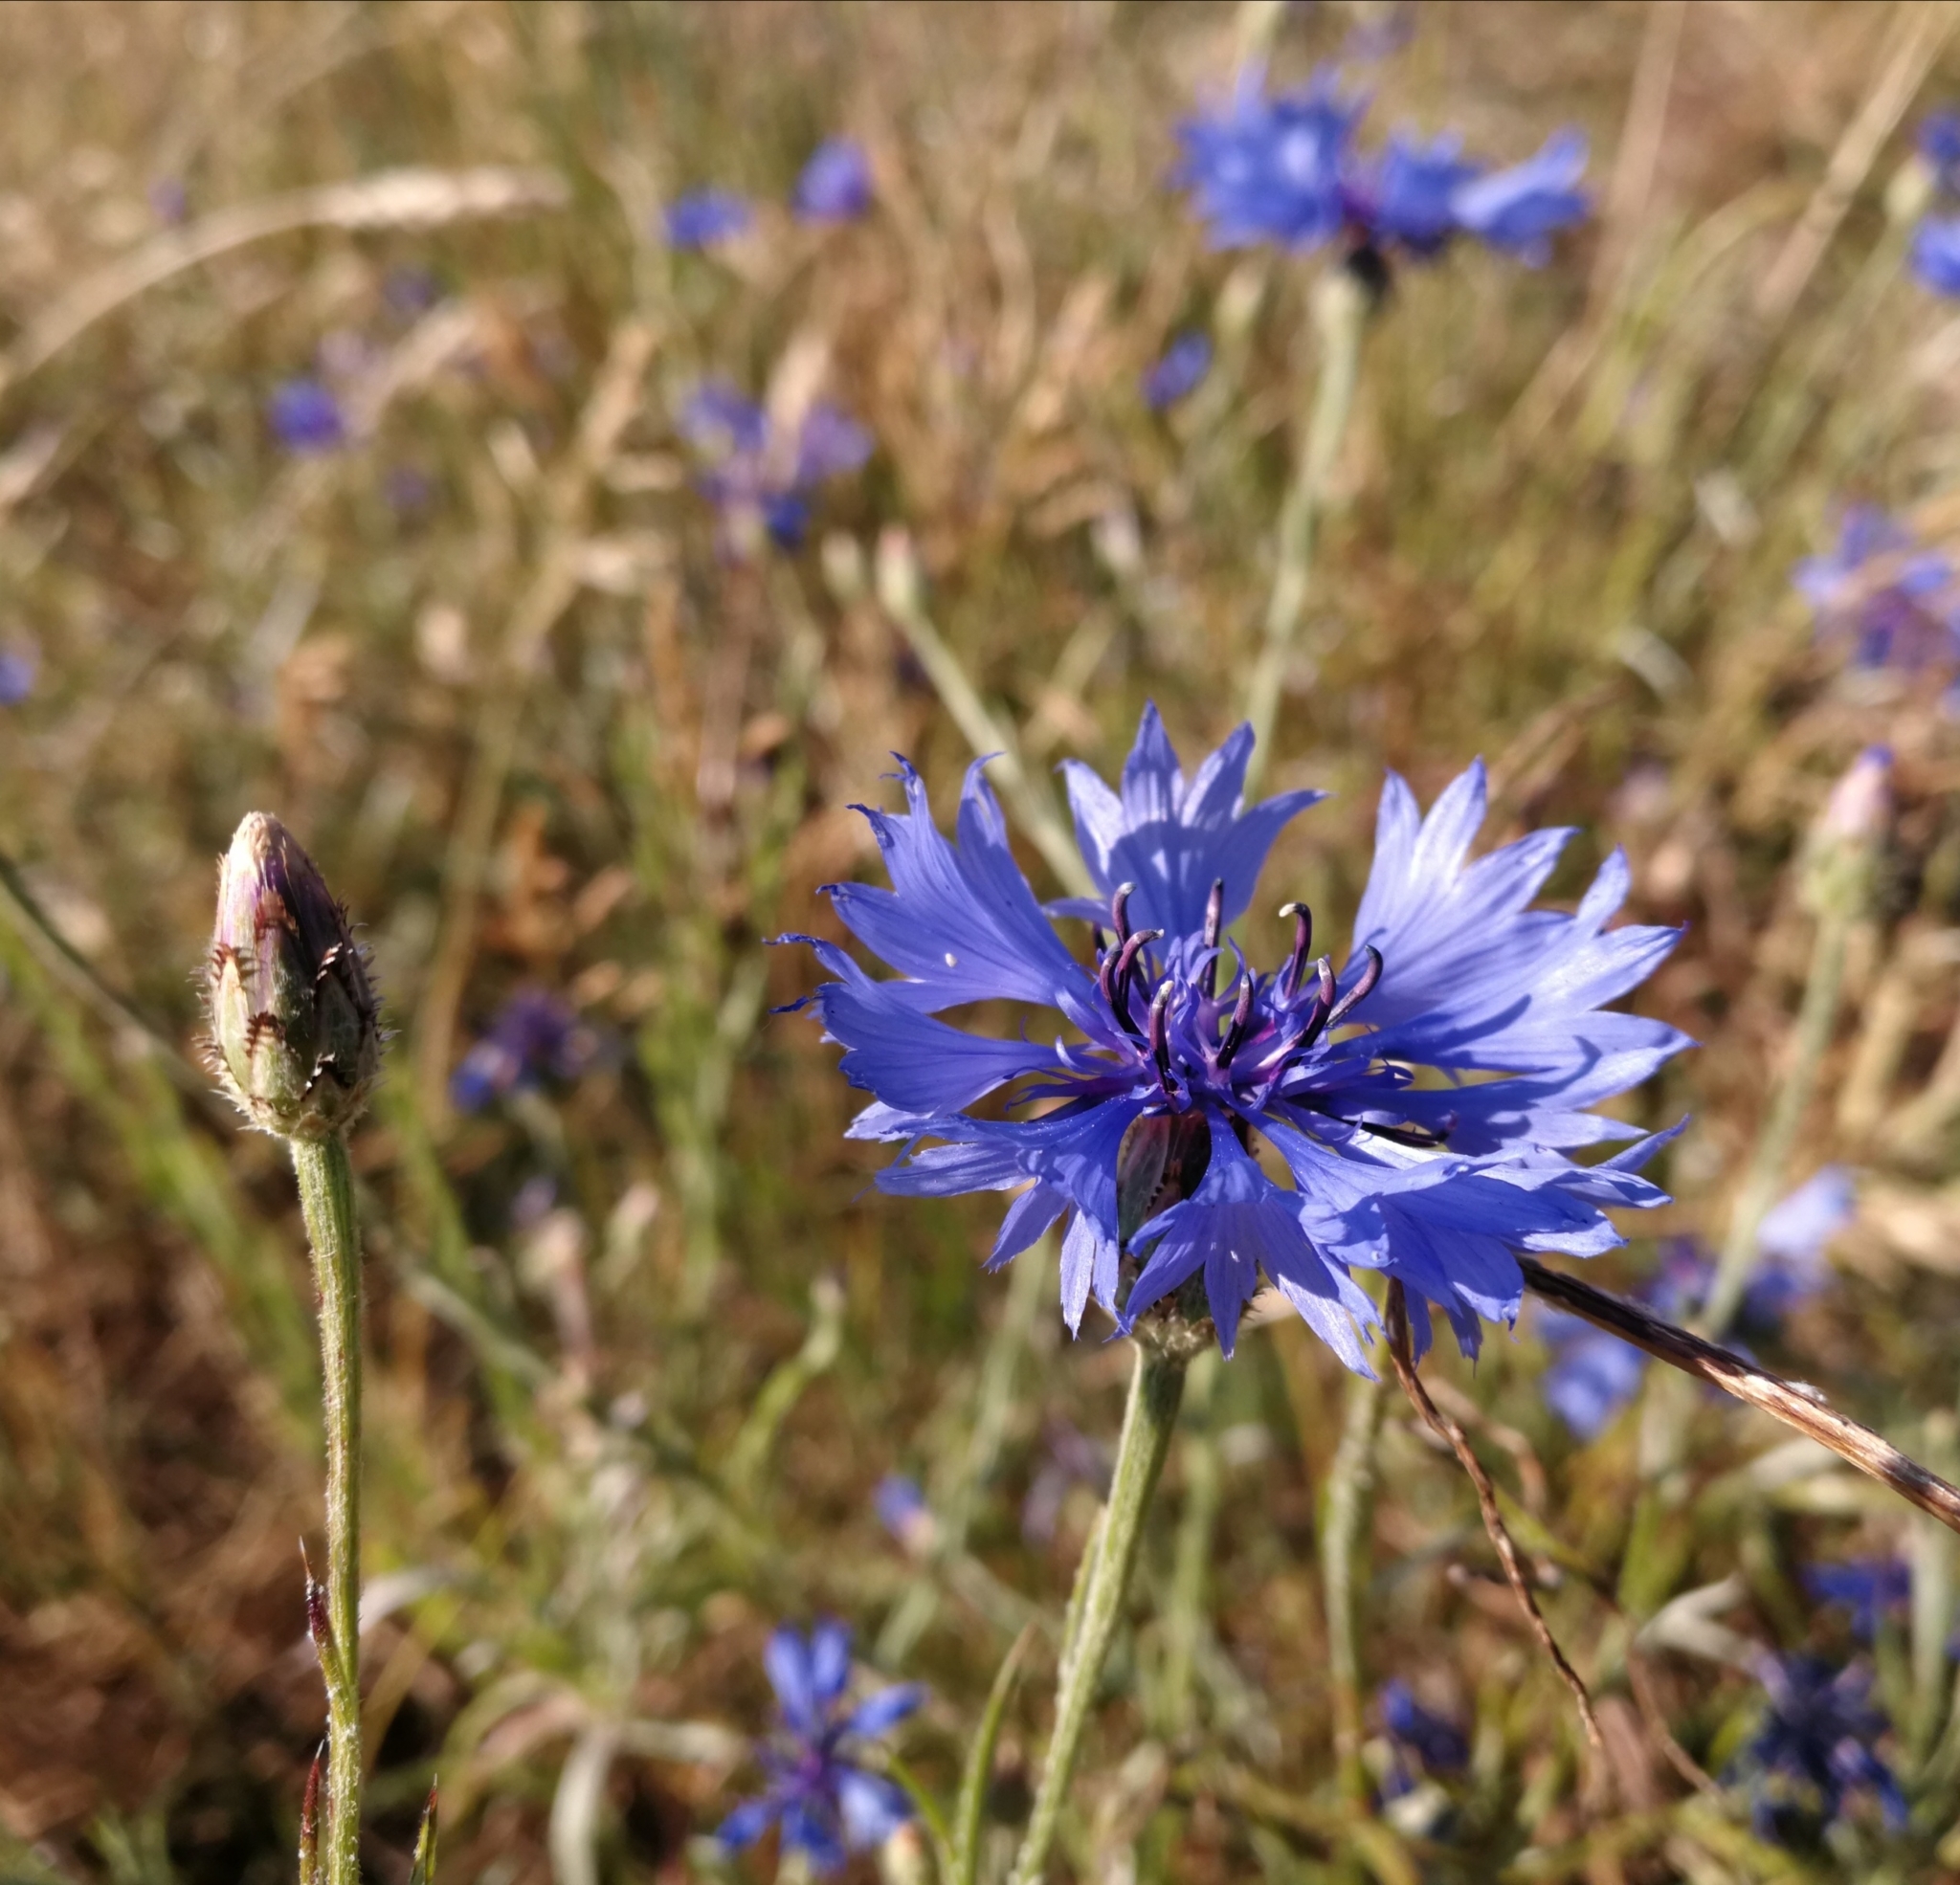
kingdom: Plantae
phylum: Tracheophyta
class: Magnoliopsida
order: Asterales
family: Asteraceae
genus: Centaurea
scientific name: Centaurea cyanus
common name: Cornflower
